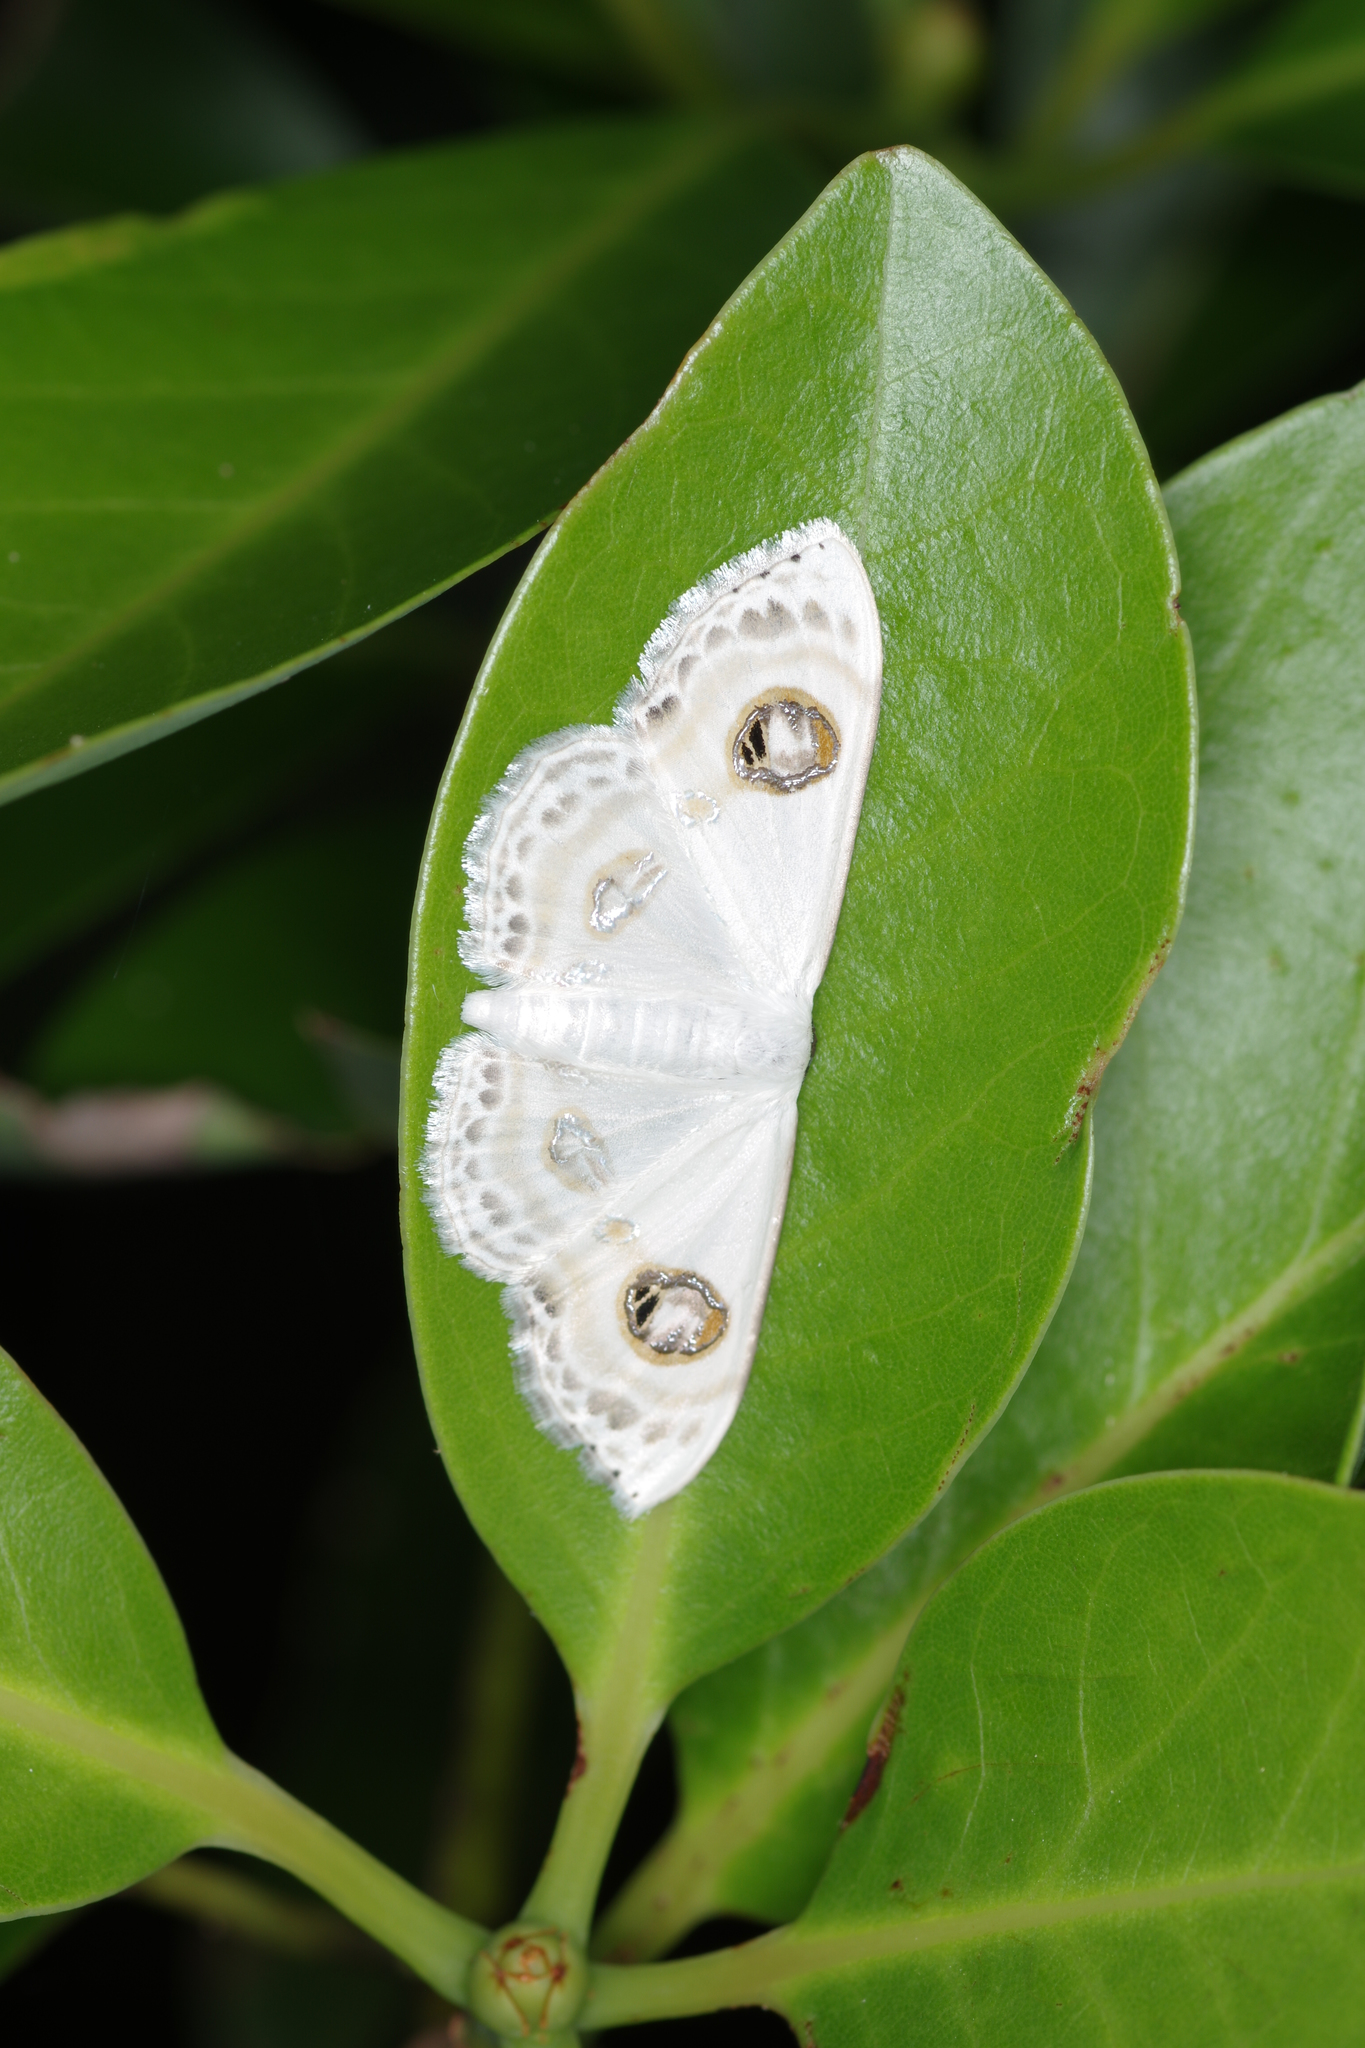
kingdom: Animalia
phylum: Arthropoda
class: Insecta
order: Lepidoptera
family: Geometridae
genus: Problepsis
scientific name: Problepsis albidior
